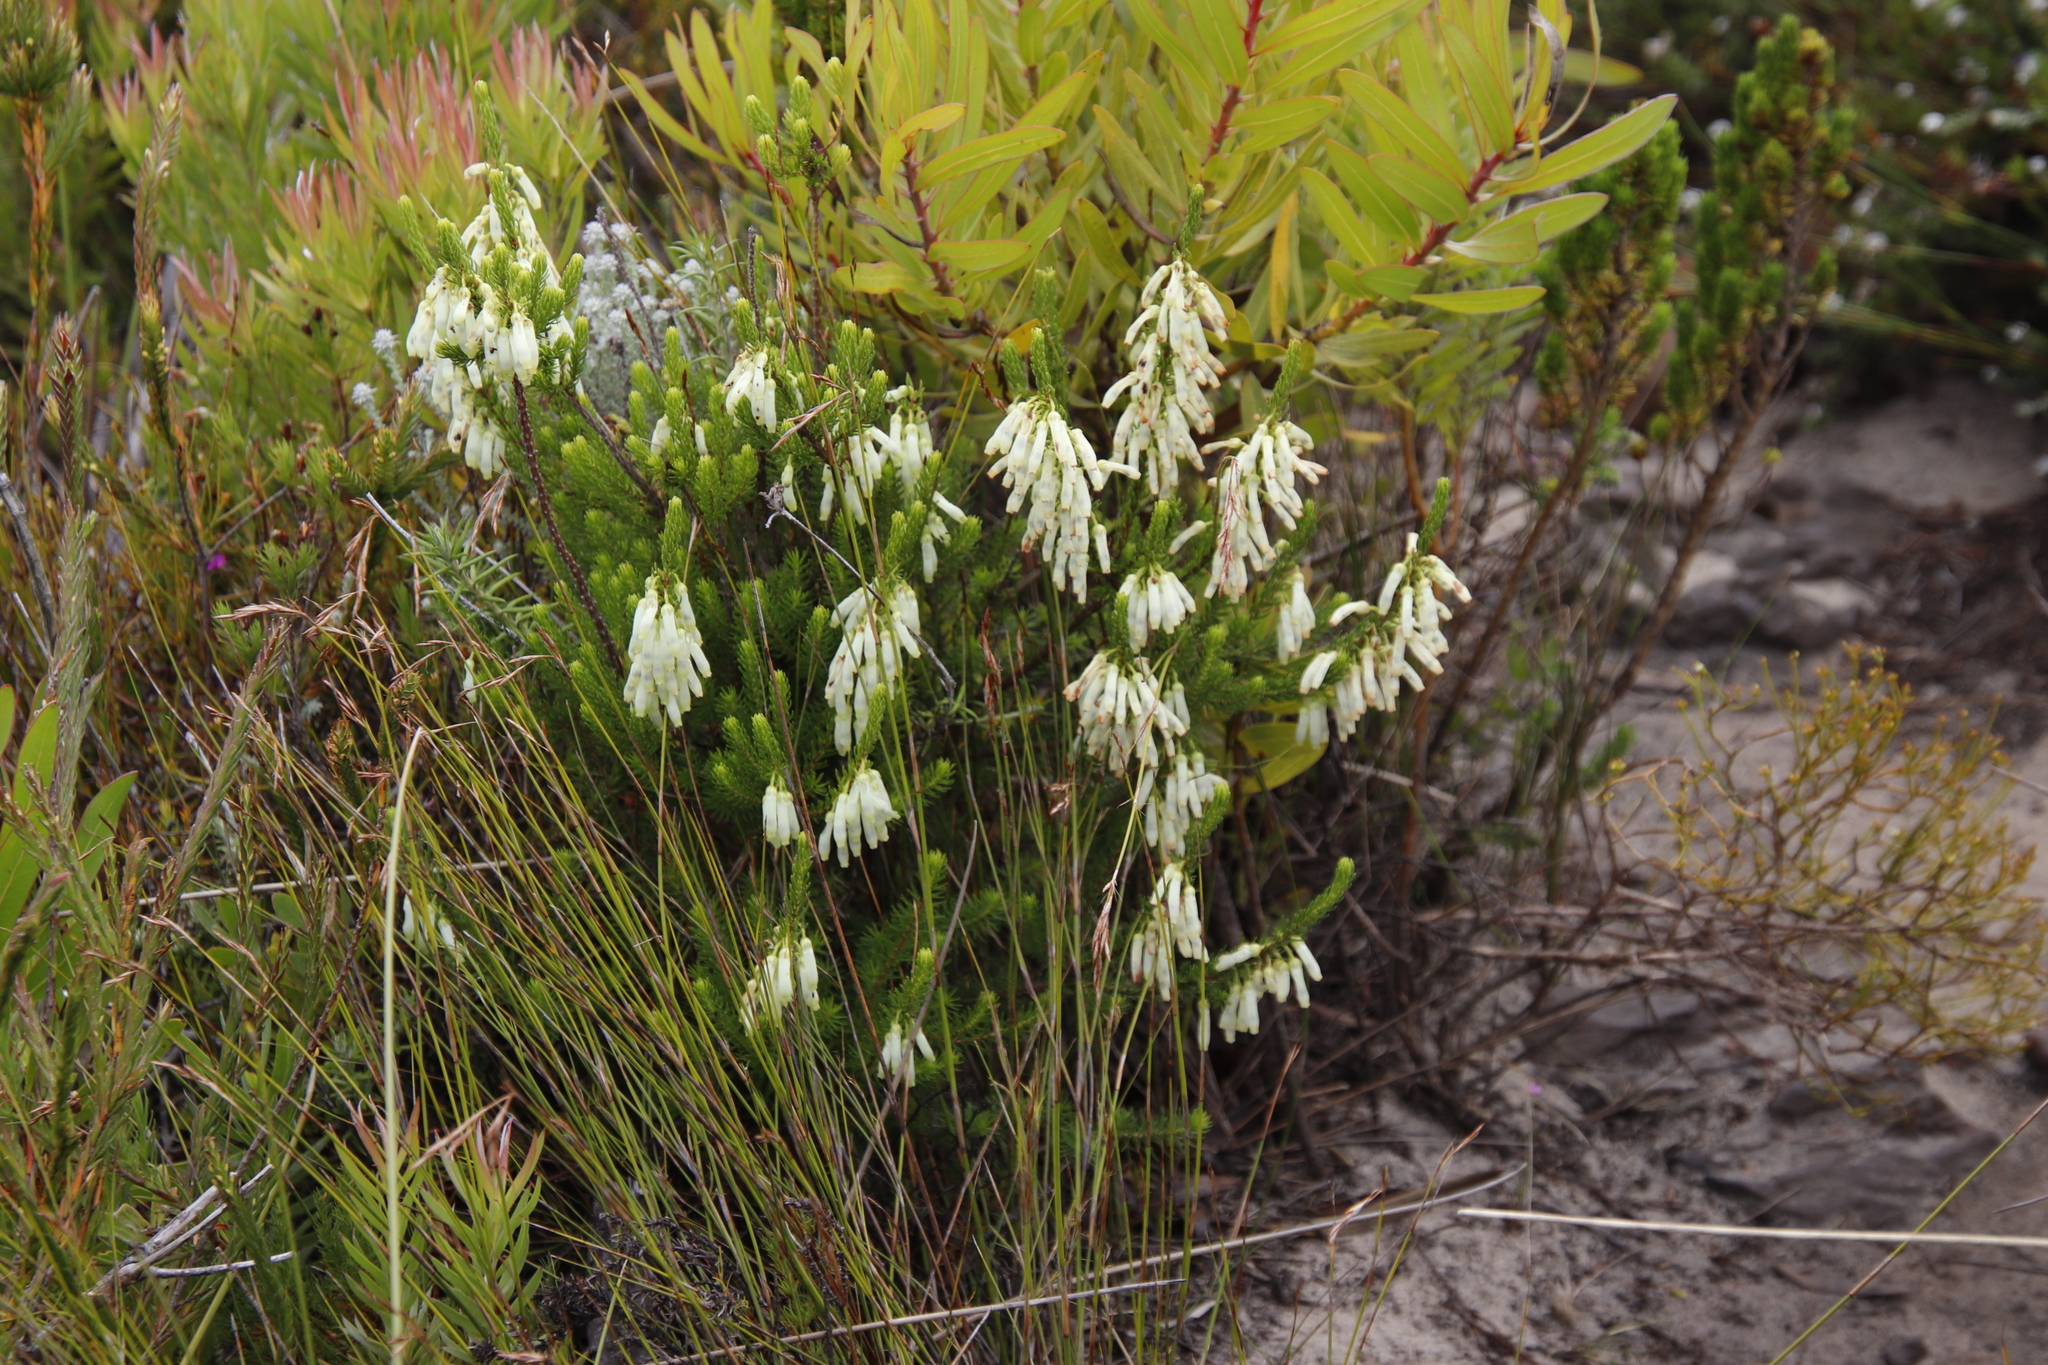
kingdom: Plantae
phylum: Tracheophyta
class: Magnoliopsida
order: Ericales
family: Ericaceae
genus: Erica
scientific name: Erica mammosa
